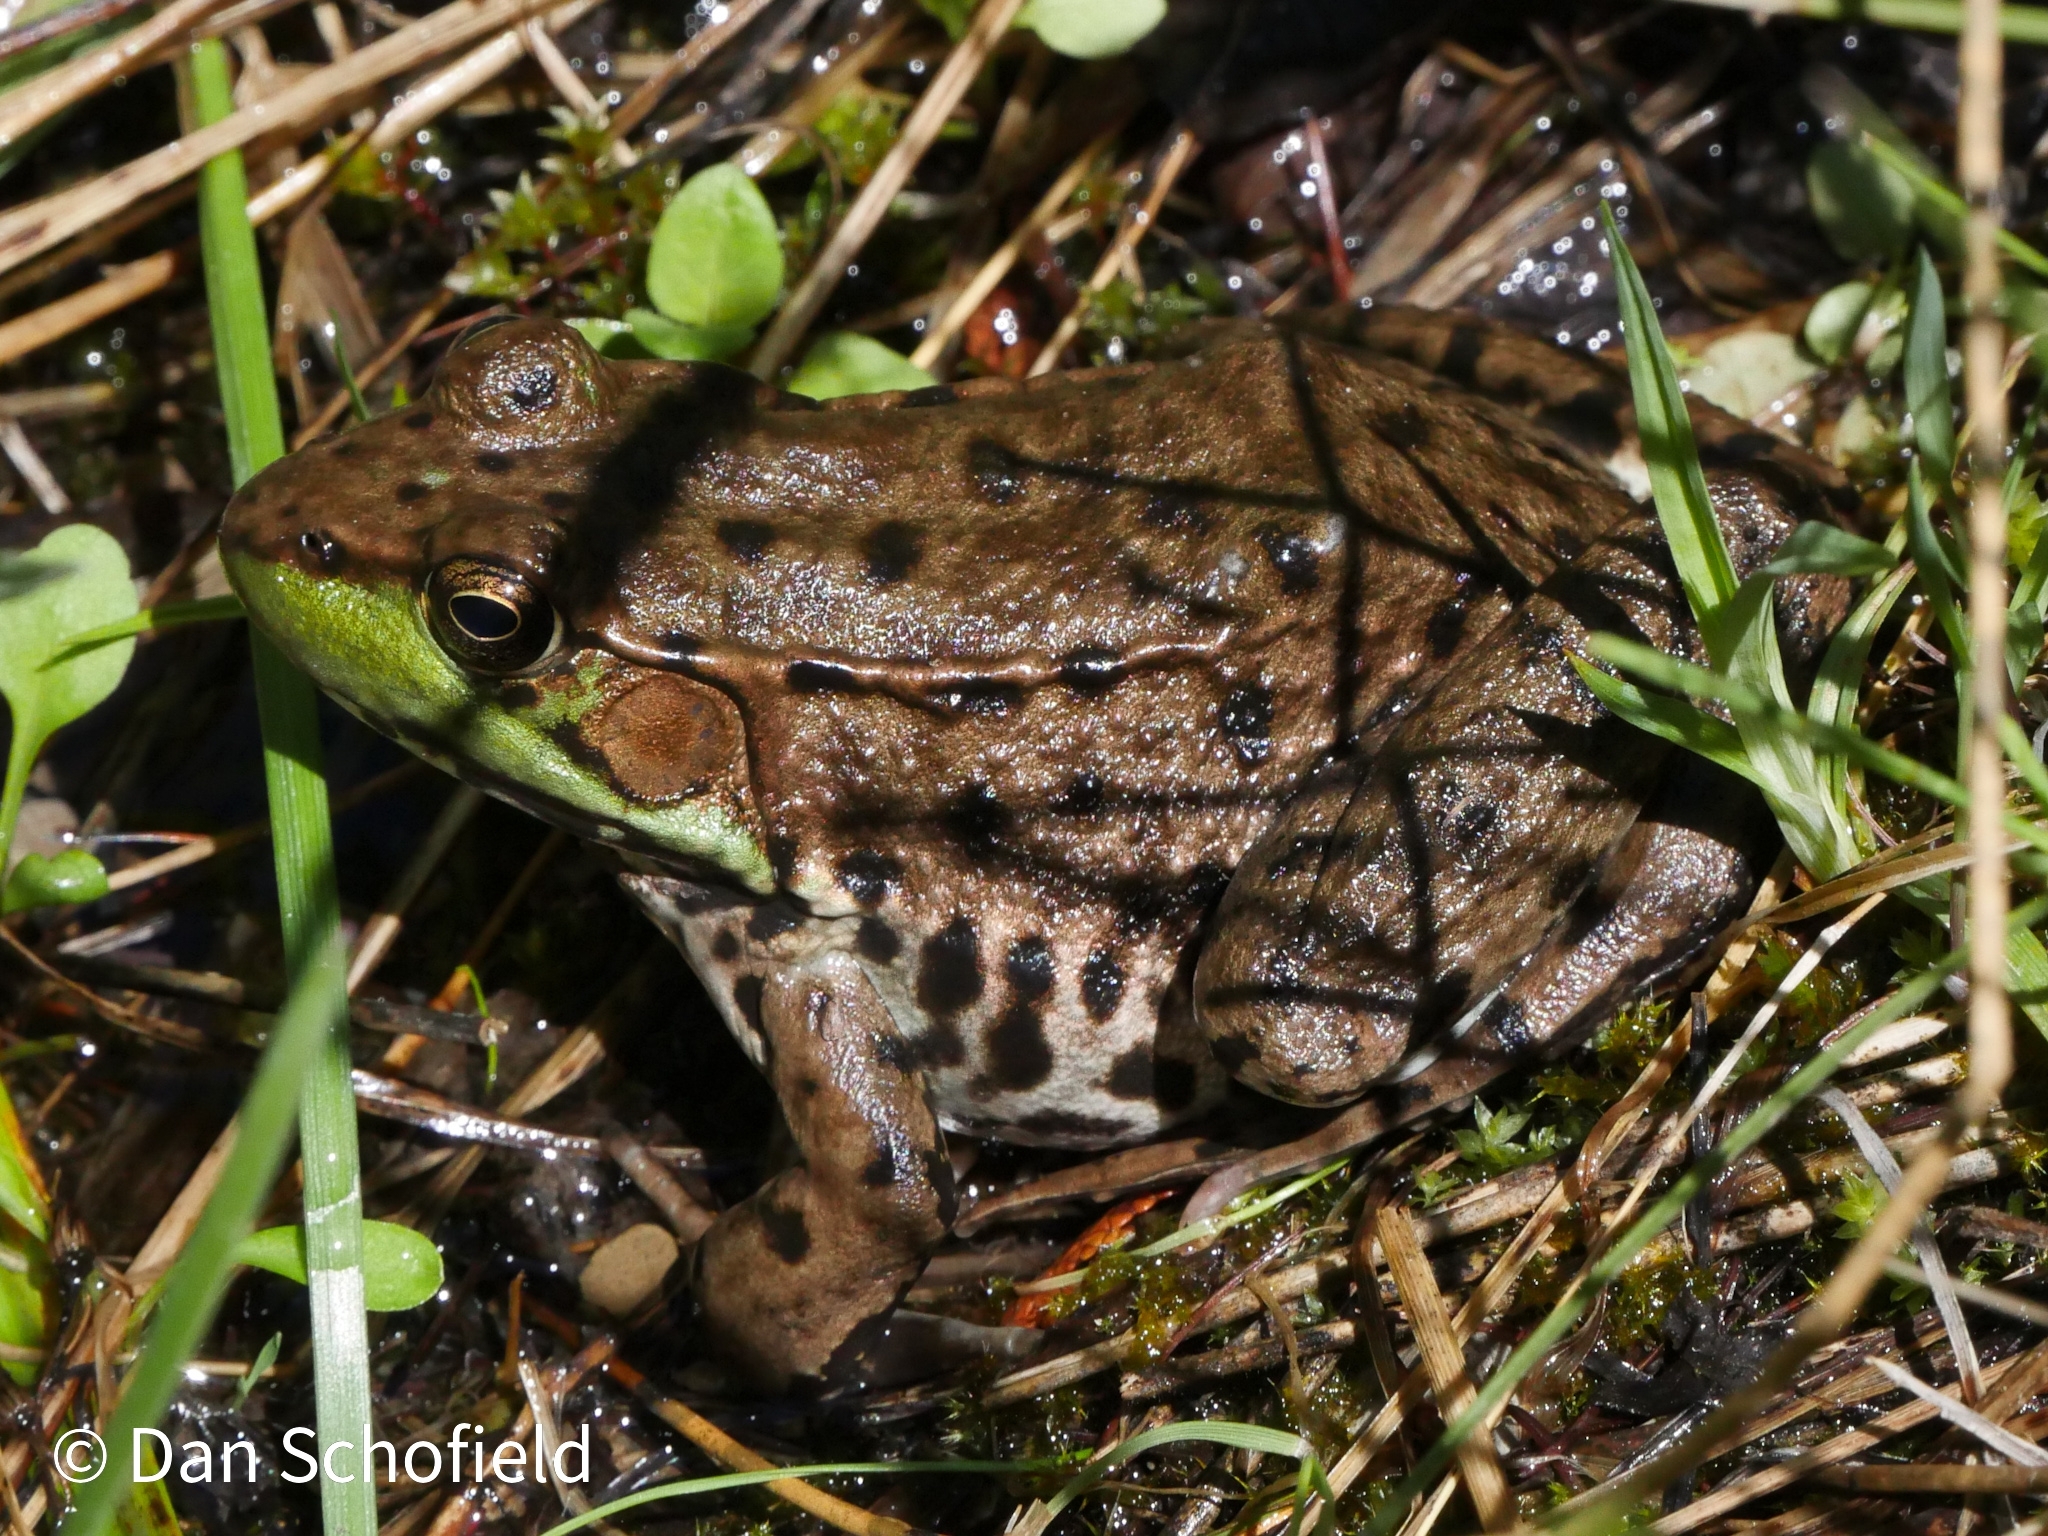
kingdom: Animalia
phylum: Chordata
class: Amphibia
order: Anura
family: Ranidae
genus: Lithobates
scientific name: Lithobates clamitans
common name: Green frog
